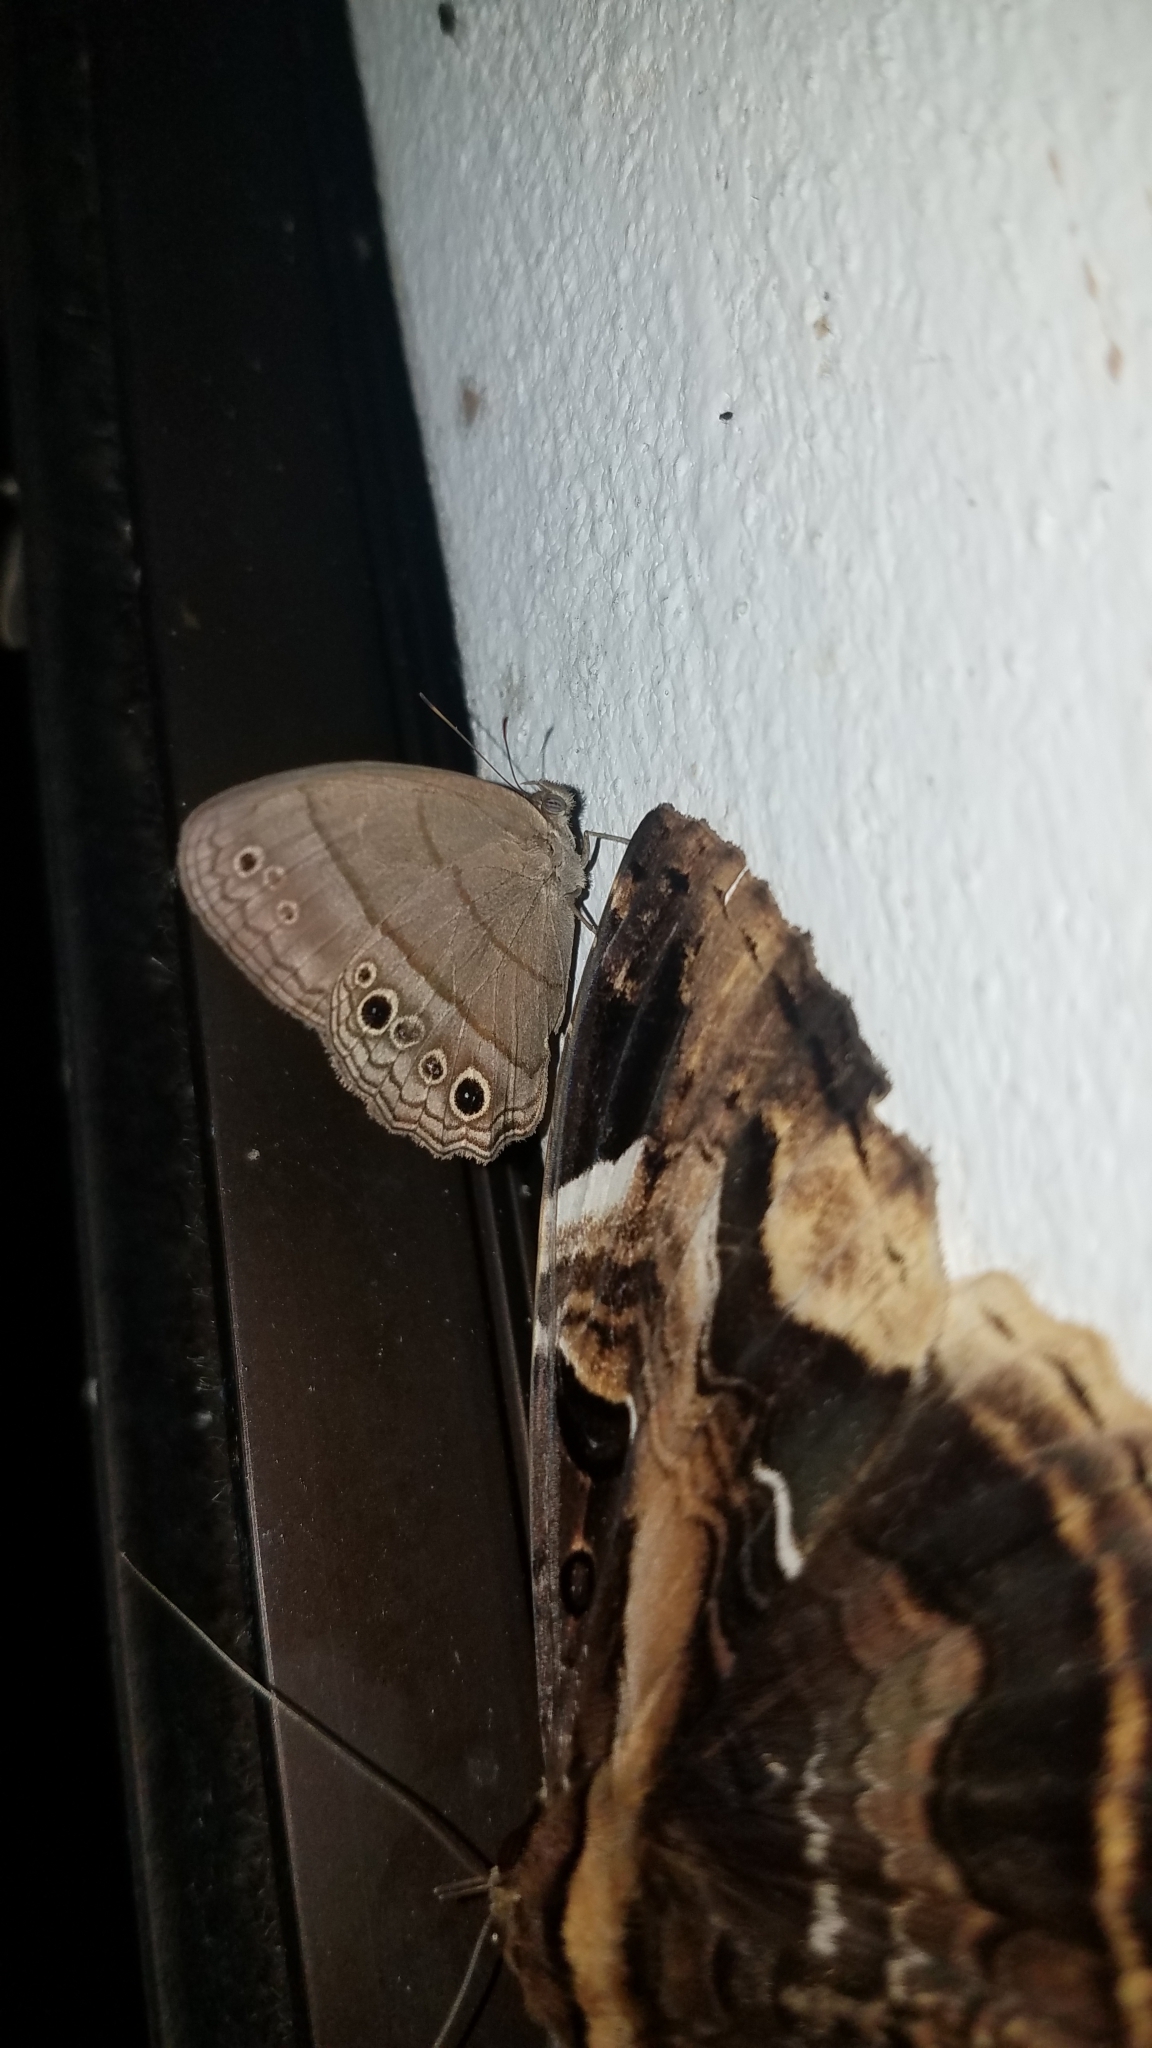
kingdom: Animalia
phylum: Arthropoda
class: Insecta
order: Lepidoptera
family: Nymphalidae
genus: Vareuptychia
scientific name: Vareuptychia similis
